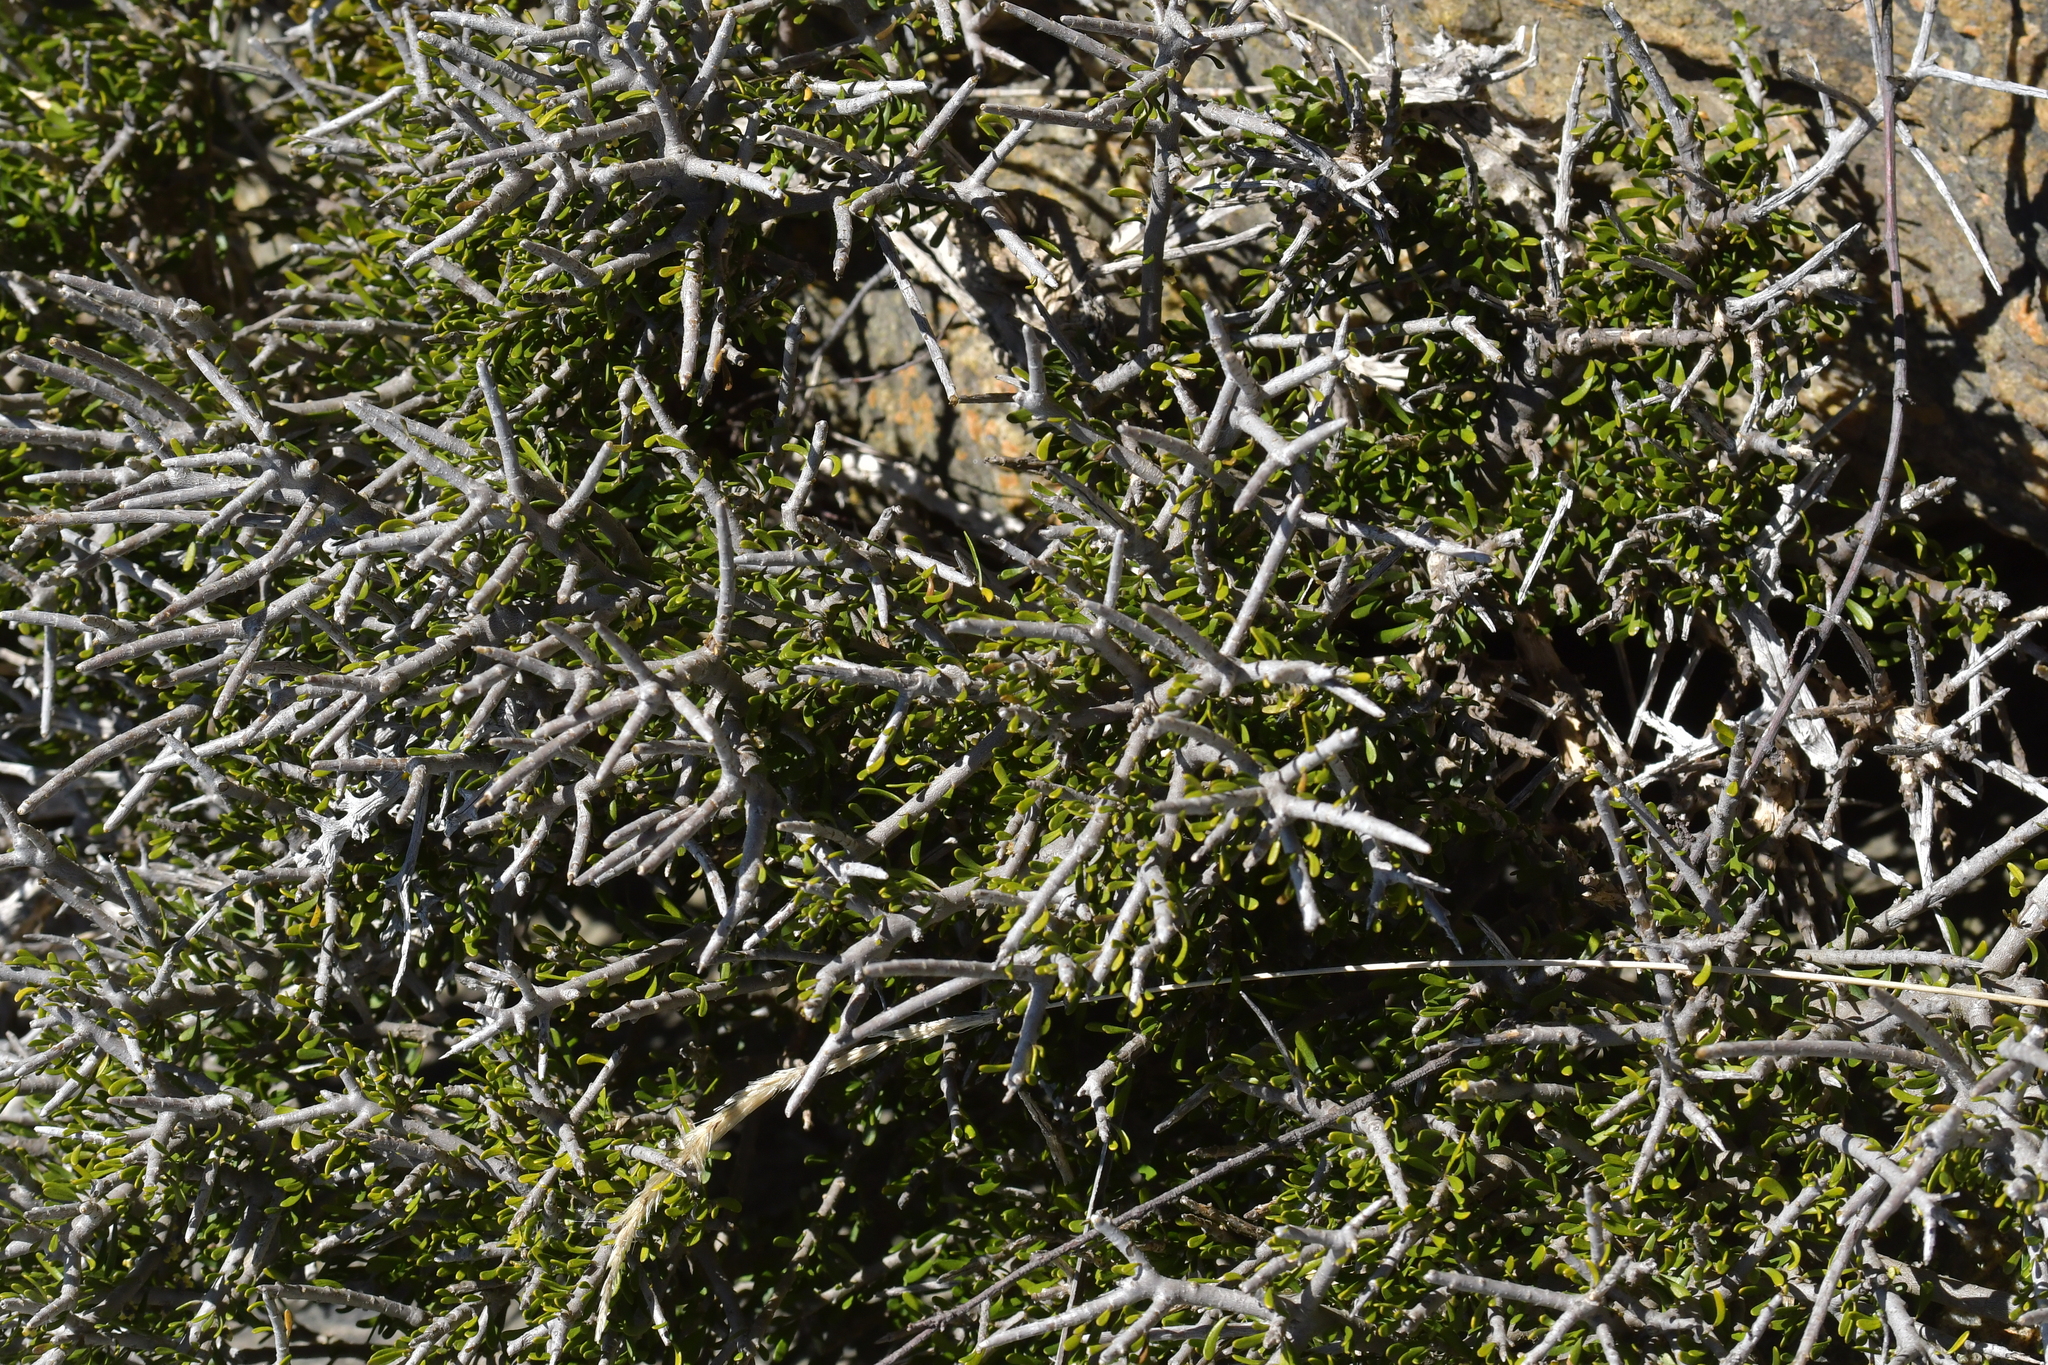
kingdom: Plantae
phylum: Tracheophyta
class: Magnoliopsida
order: Malpighiales
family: Violaceae
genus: Melicytus
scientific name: Melicytus alpinus
